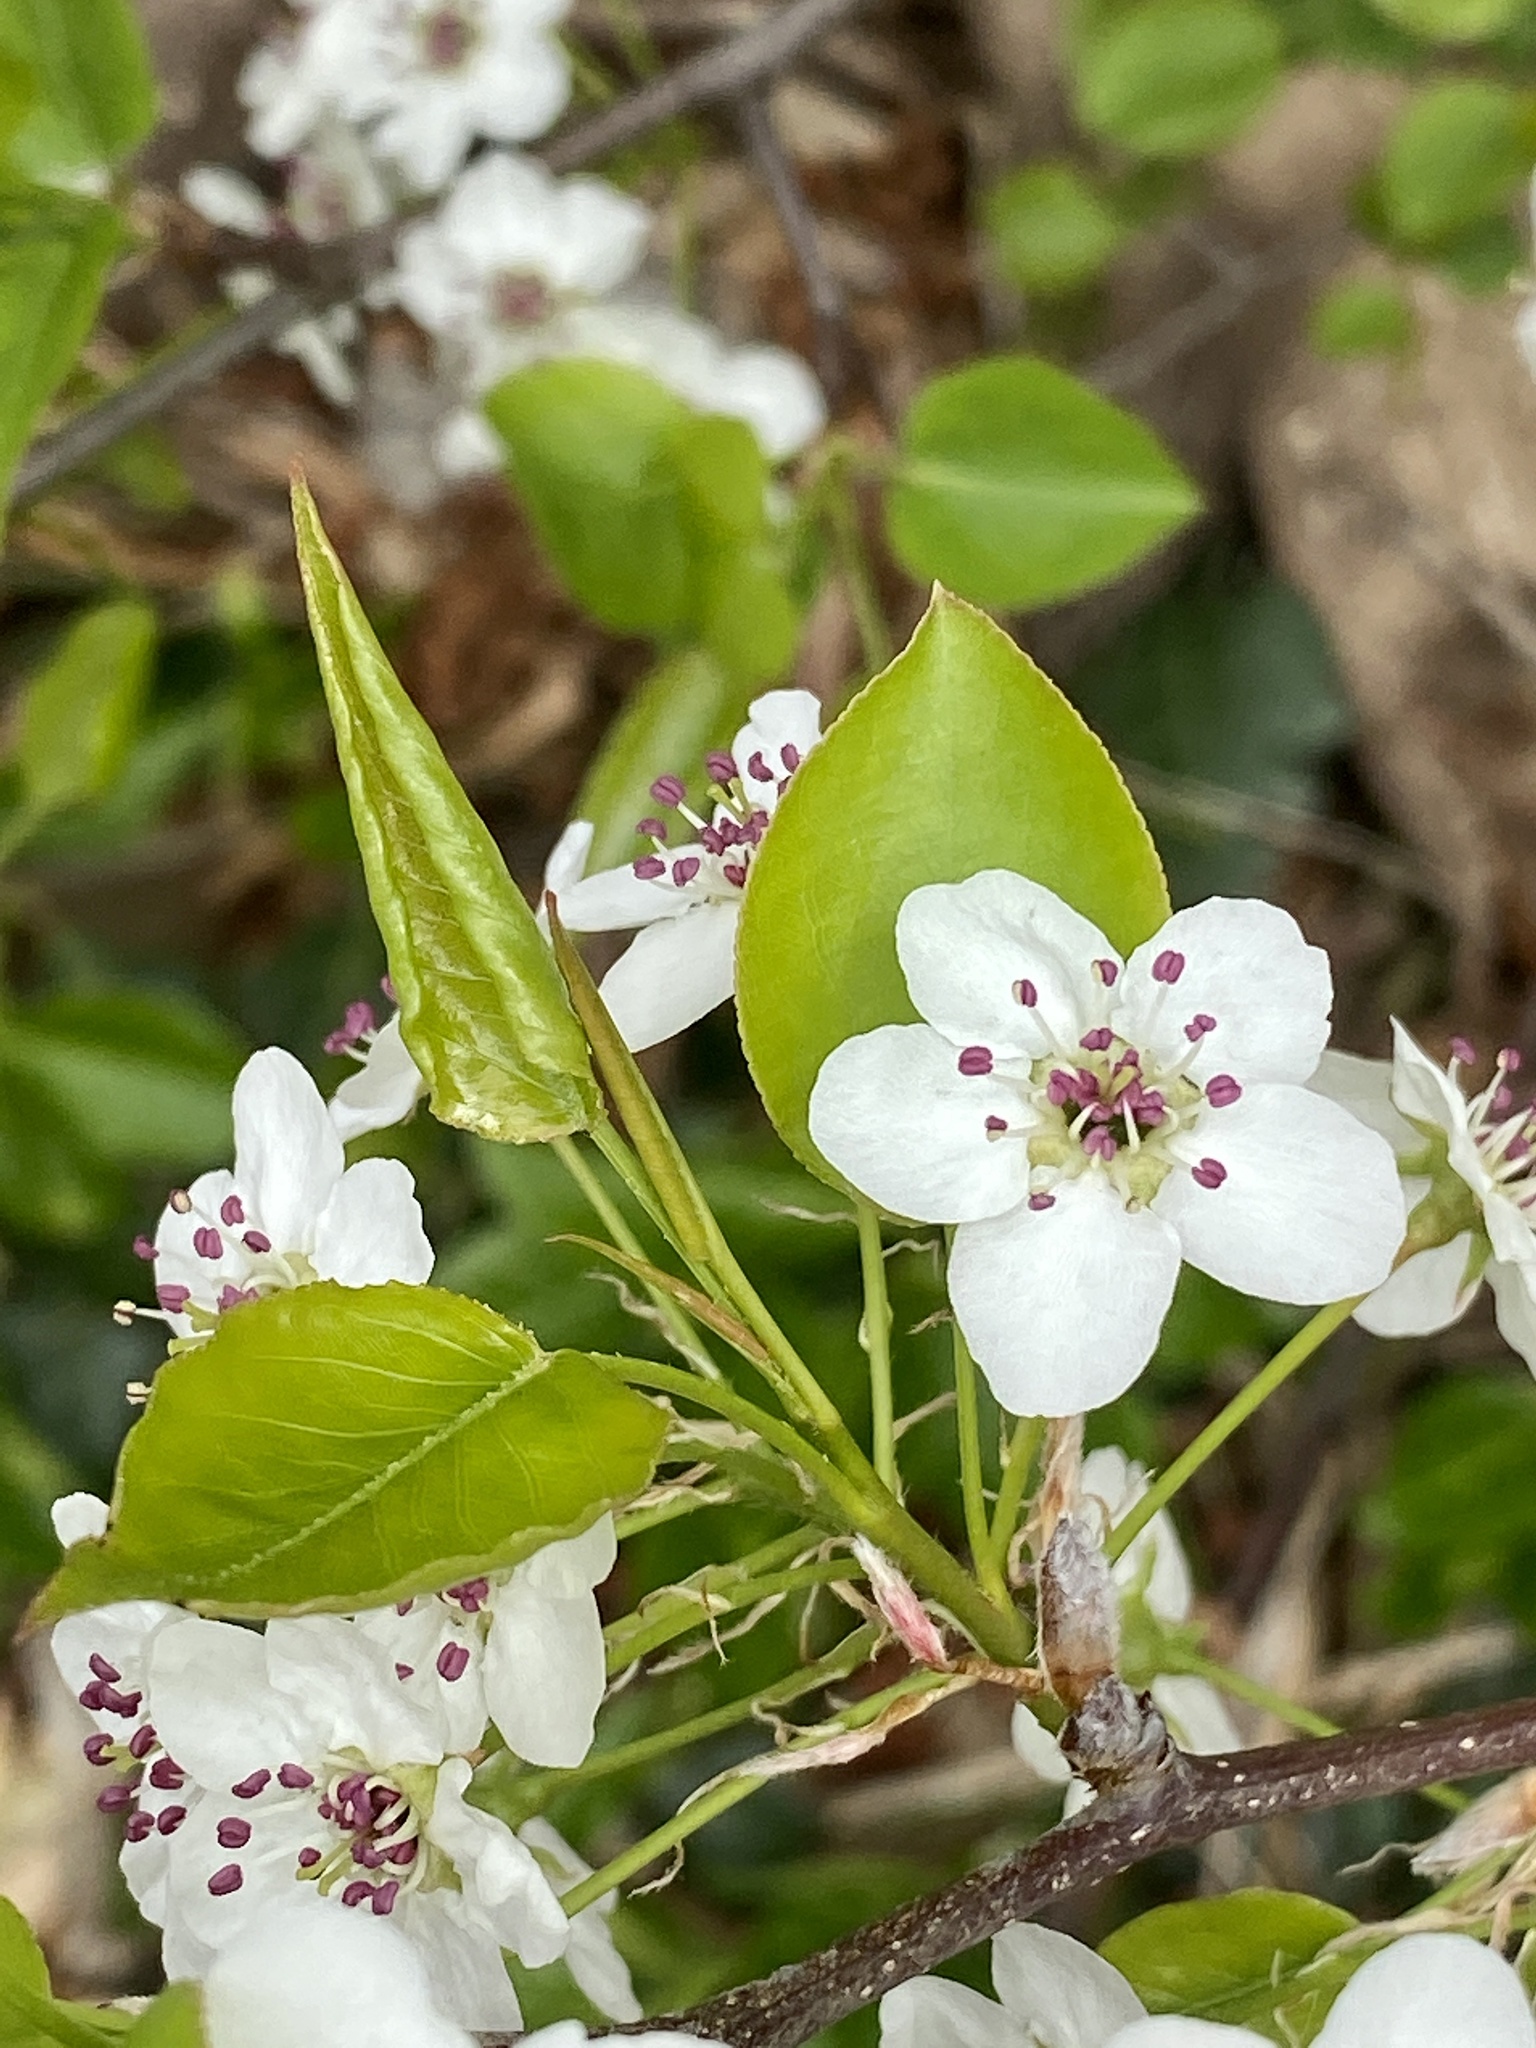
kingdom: Plantae
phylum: Tracheophyta
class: Magnoliopsida
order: Rosales
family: Rosaceae
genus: Pyrus
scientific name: Pyrus calleryana
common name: Callery pear
